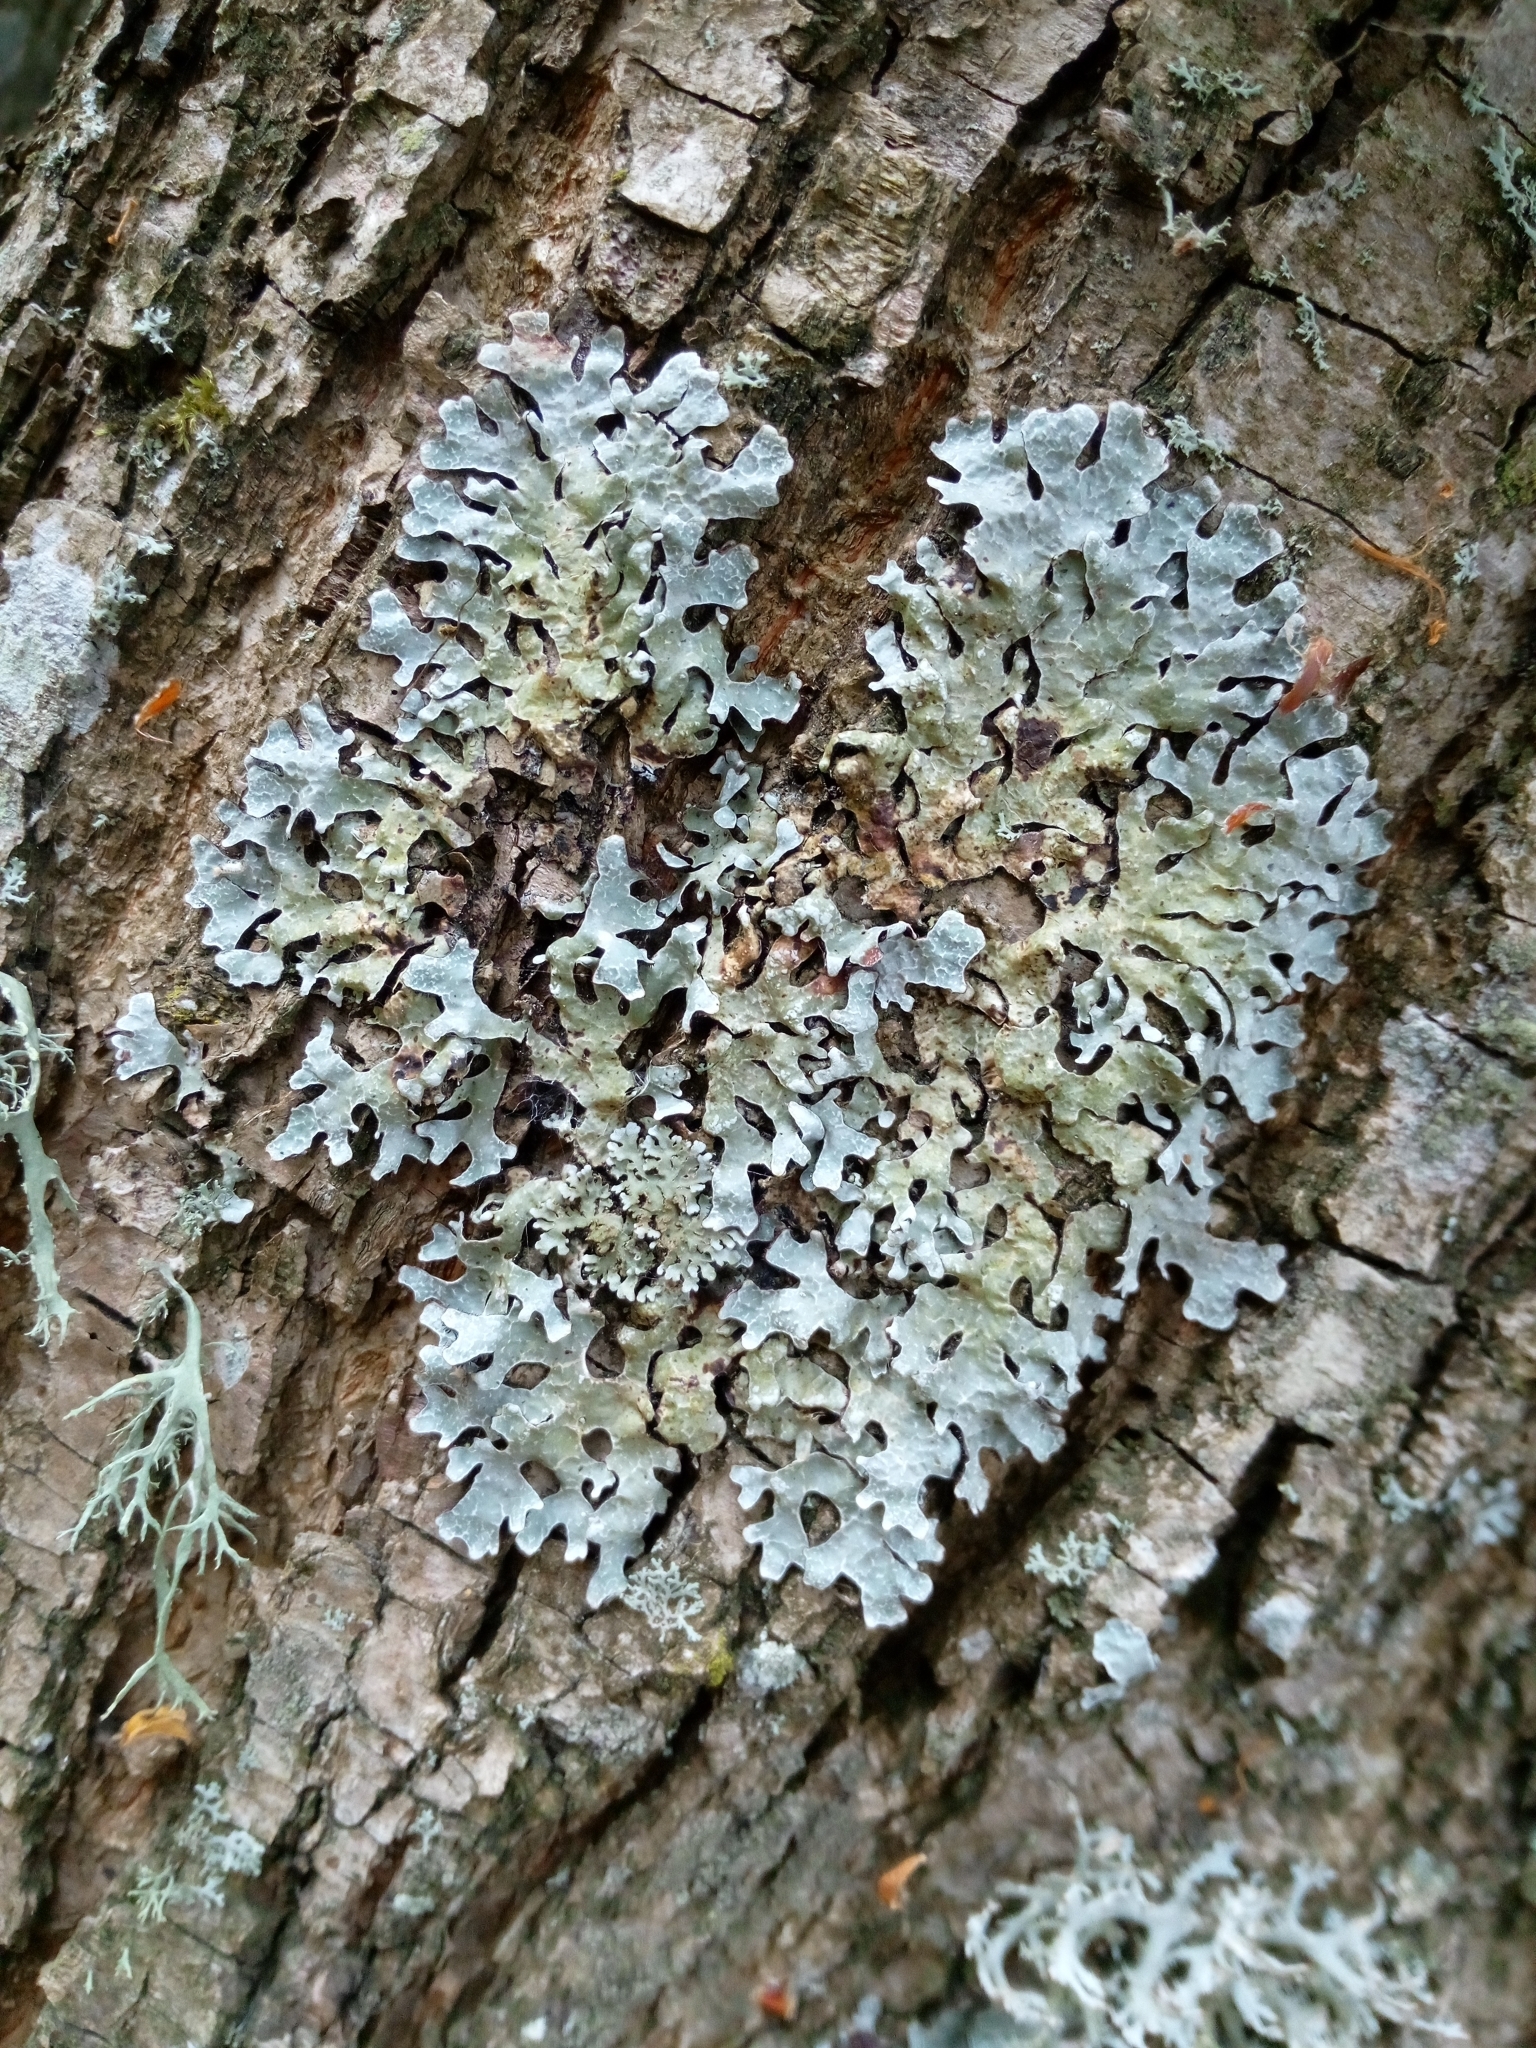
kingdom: Fungi
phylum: Ascomycota
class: Lecanoromycetes
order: Lecanorales
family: Parmeliaceae
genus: Parmelia
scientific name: Parmelia sulcata
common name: Netted shield lichen
